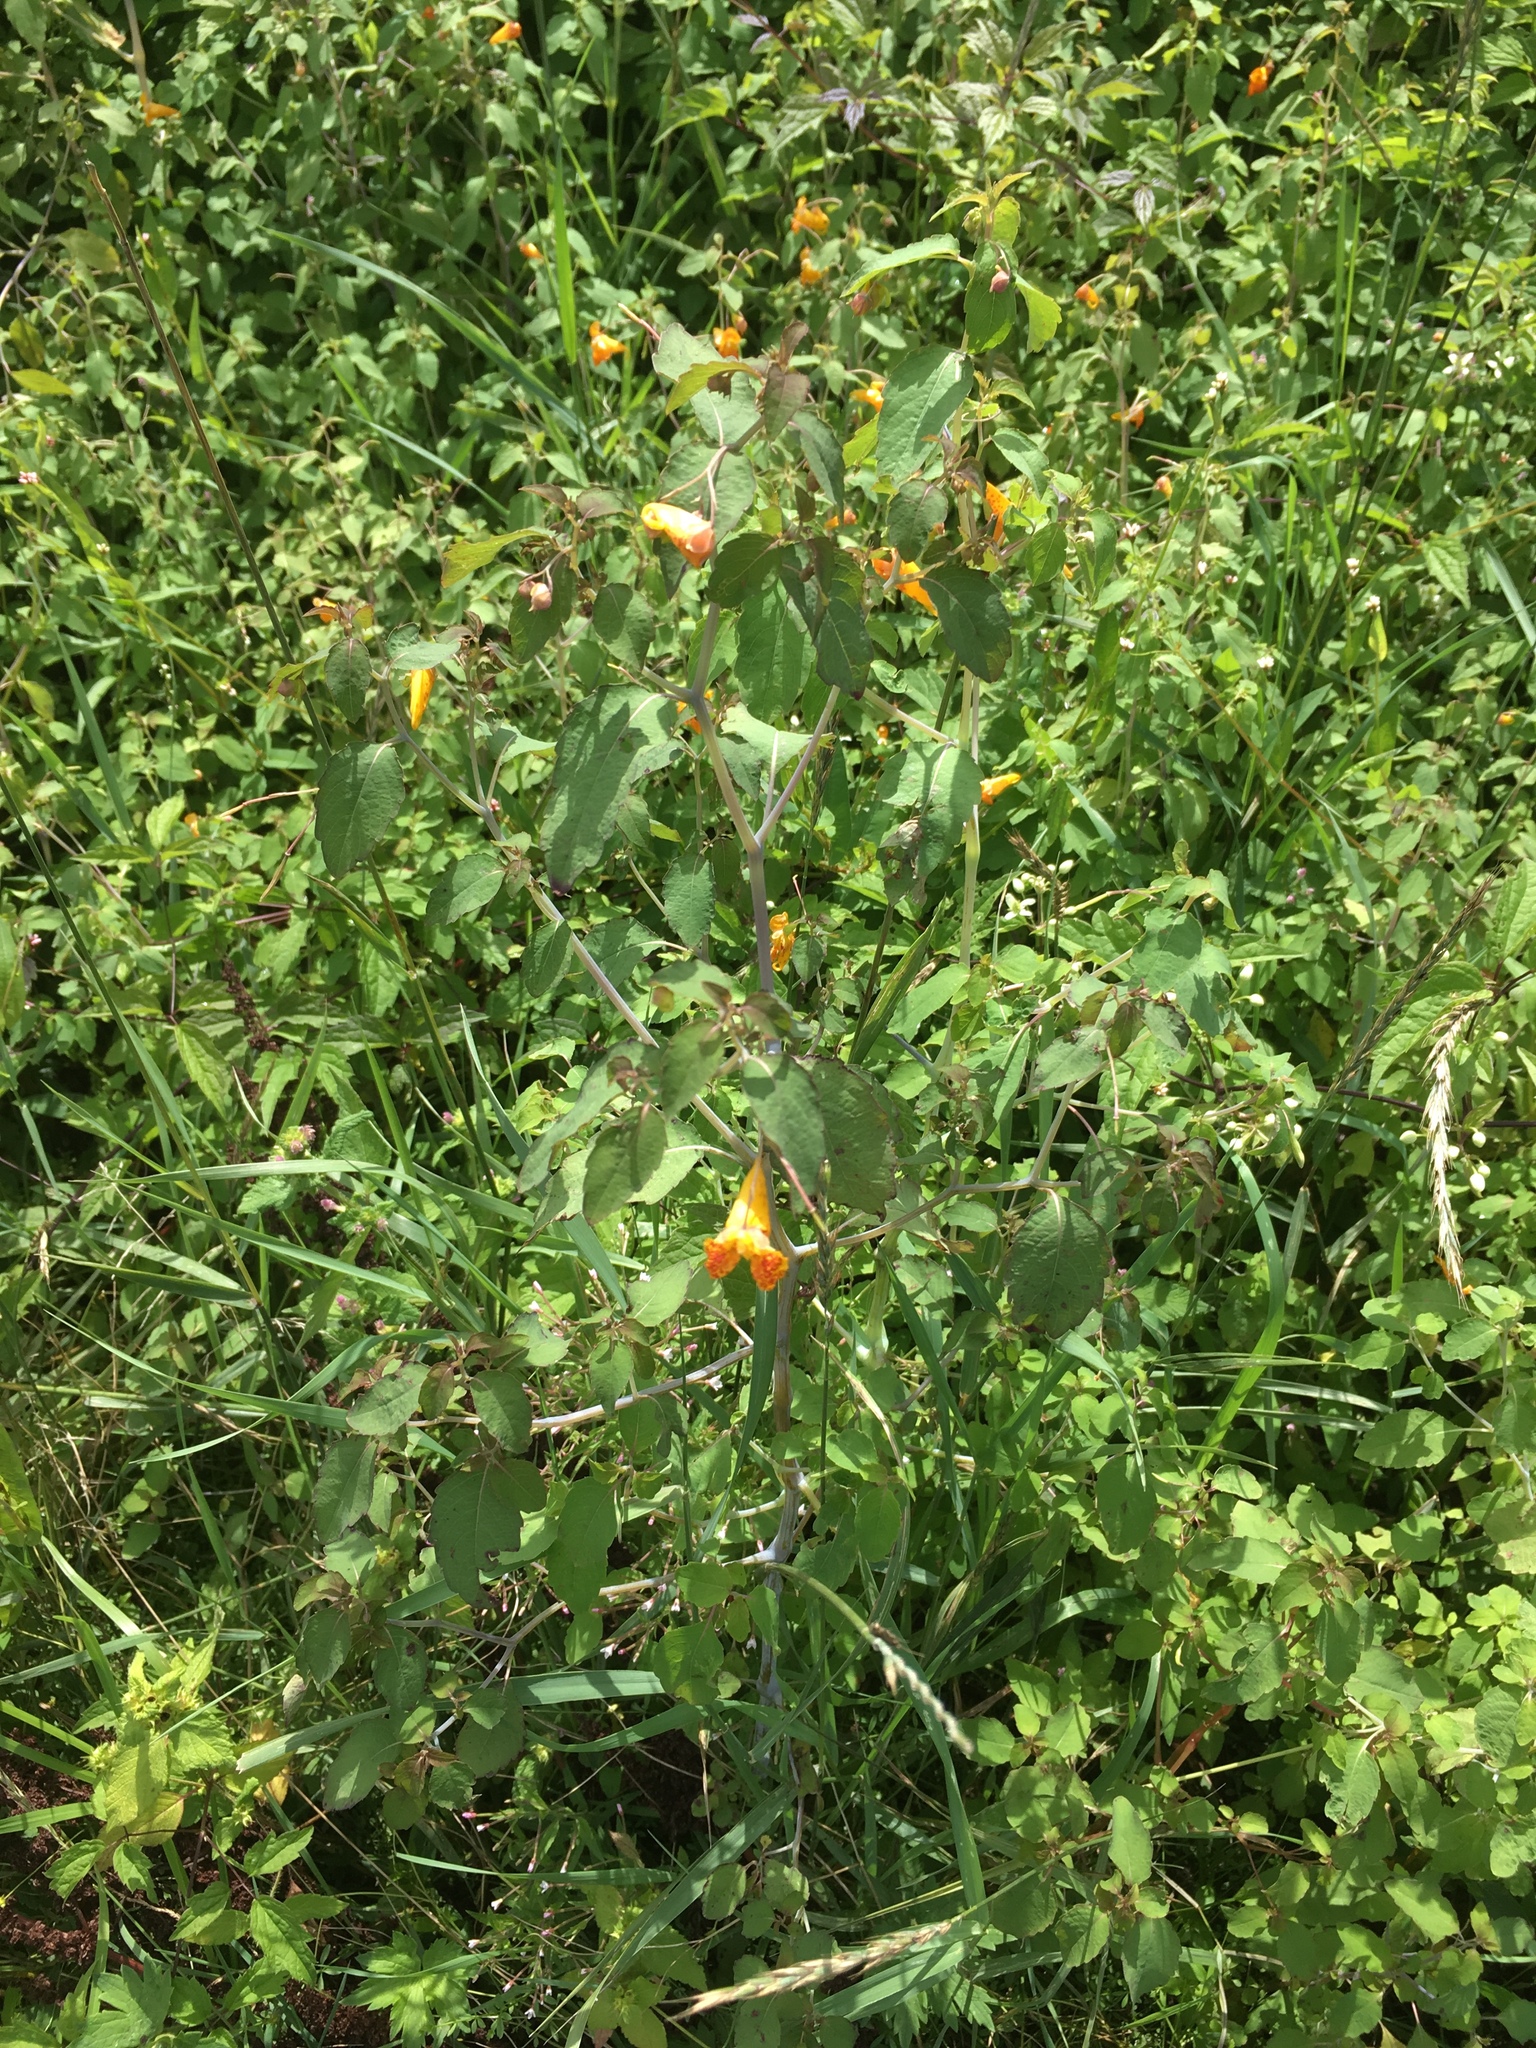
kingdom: Plantae
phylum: Tracheophyta
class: Magnoliopsida
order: Ericales
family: Balsaminaceae
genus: Impatiens
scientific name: Impatiens capensis
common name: Orange balsam
